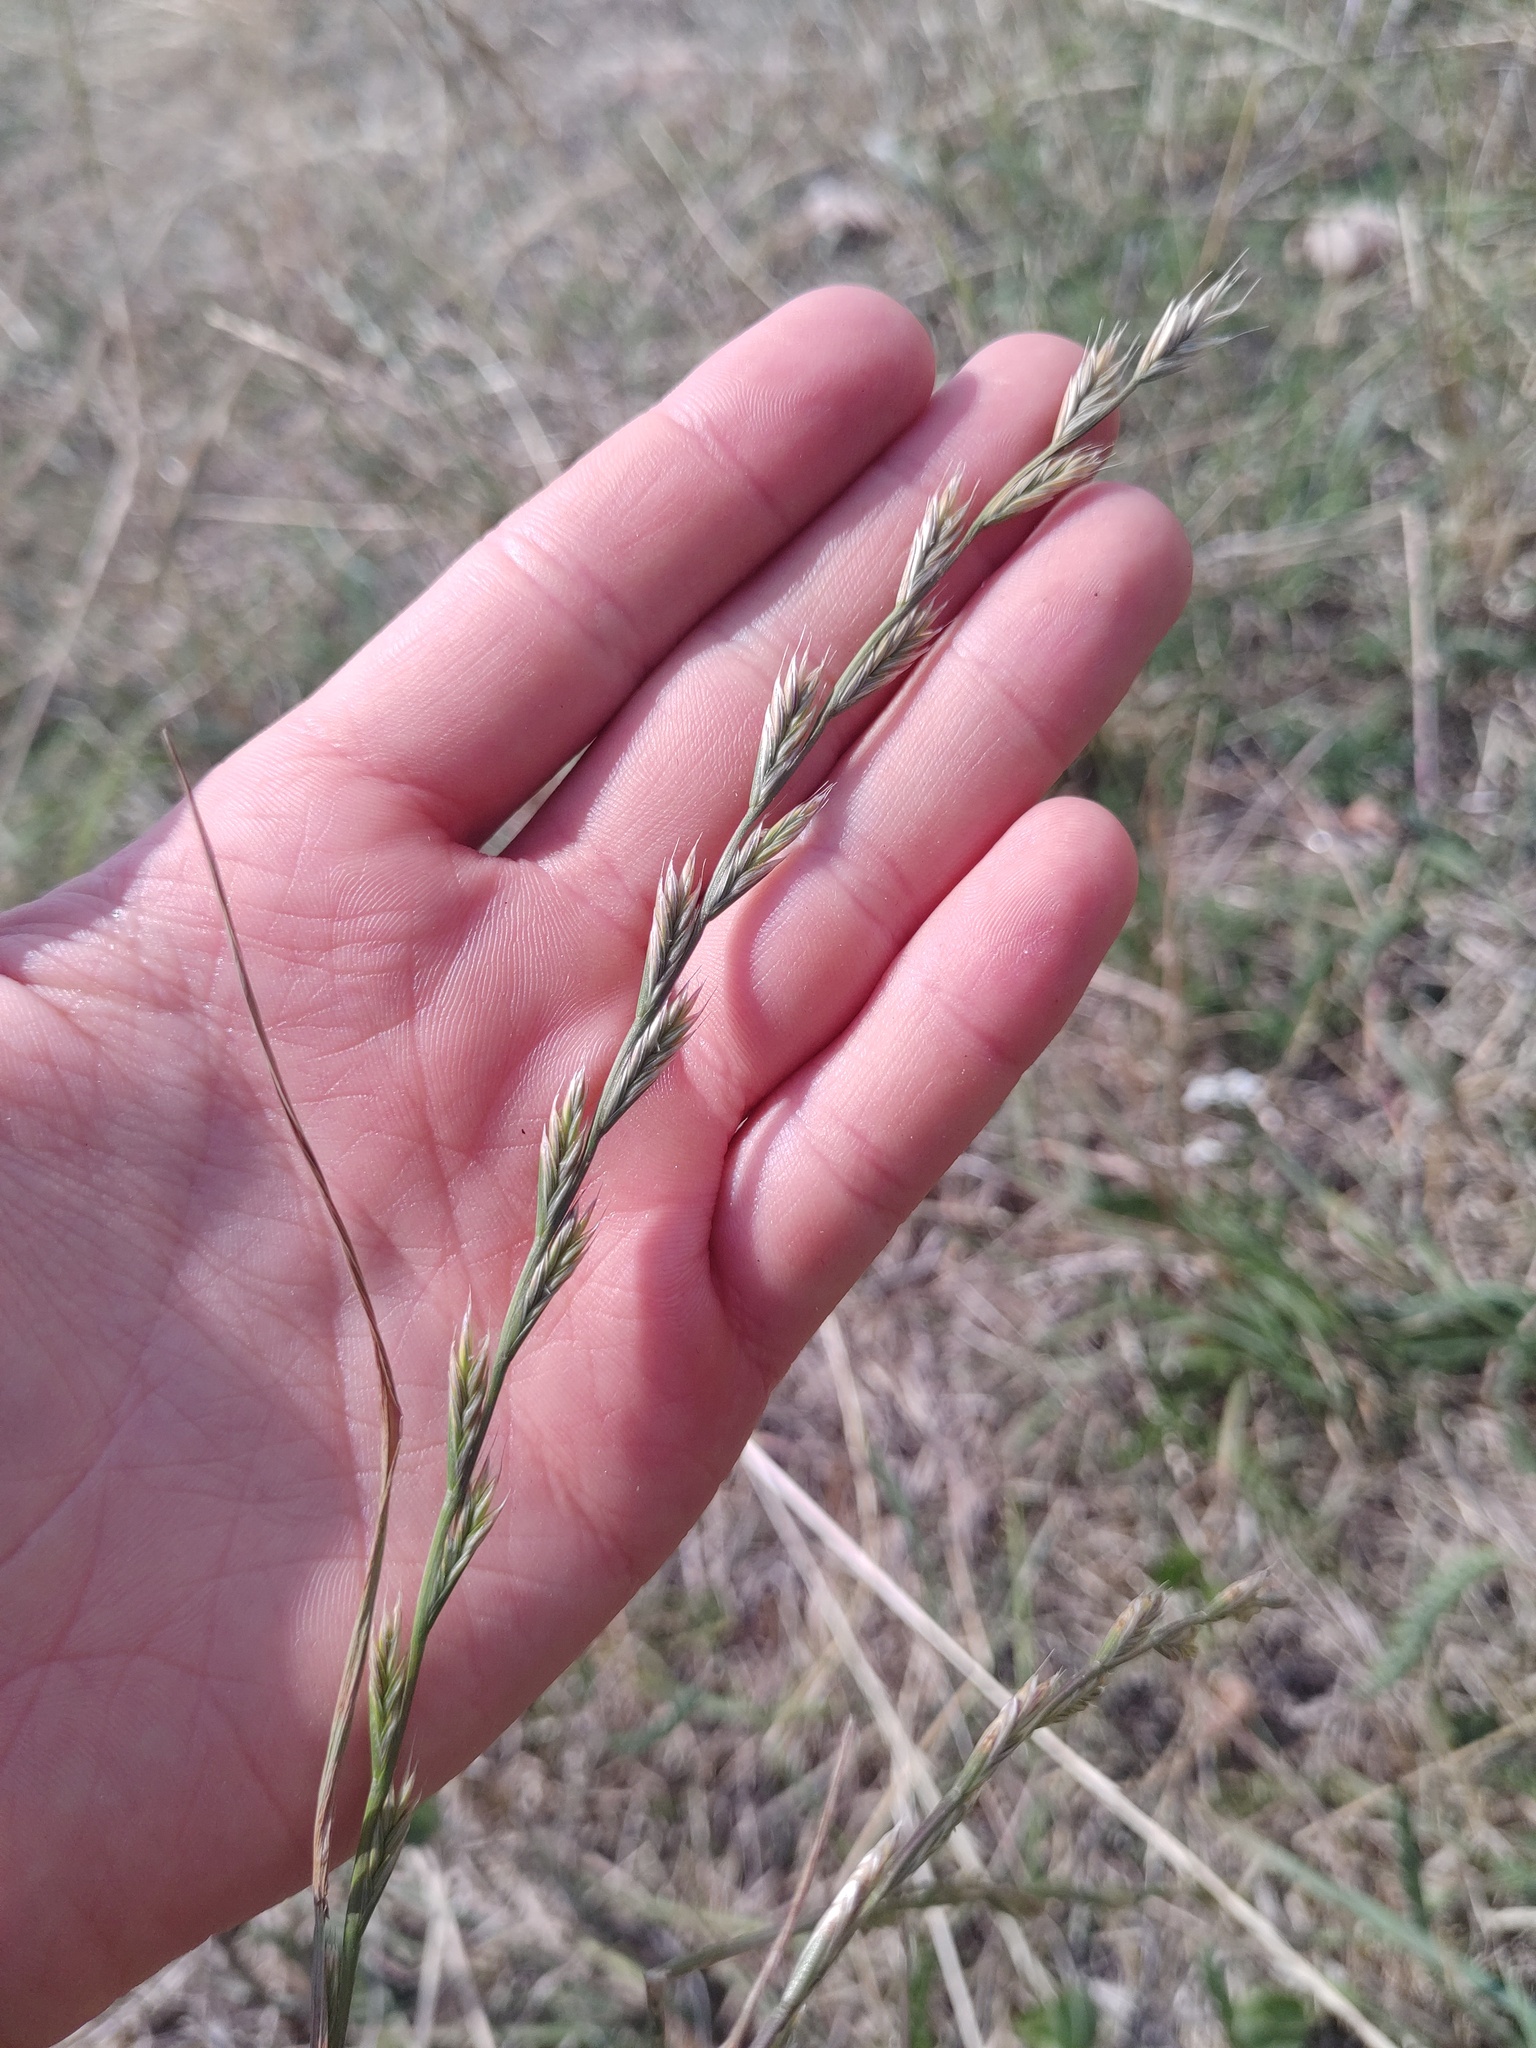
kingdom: Plantae
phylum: Tracheophyta
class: Liliopsida
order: Poales
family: Poaceae
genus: Lolium
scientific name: Lolium multiflorum
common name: Annual ryegrass
